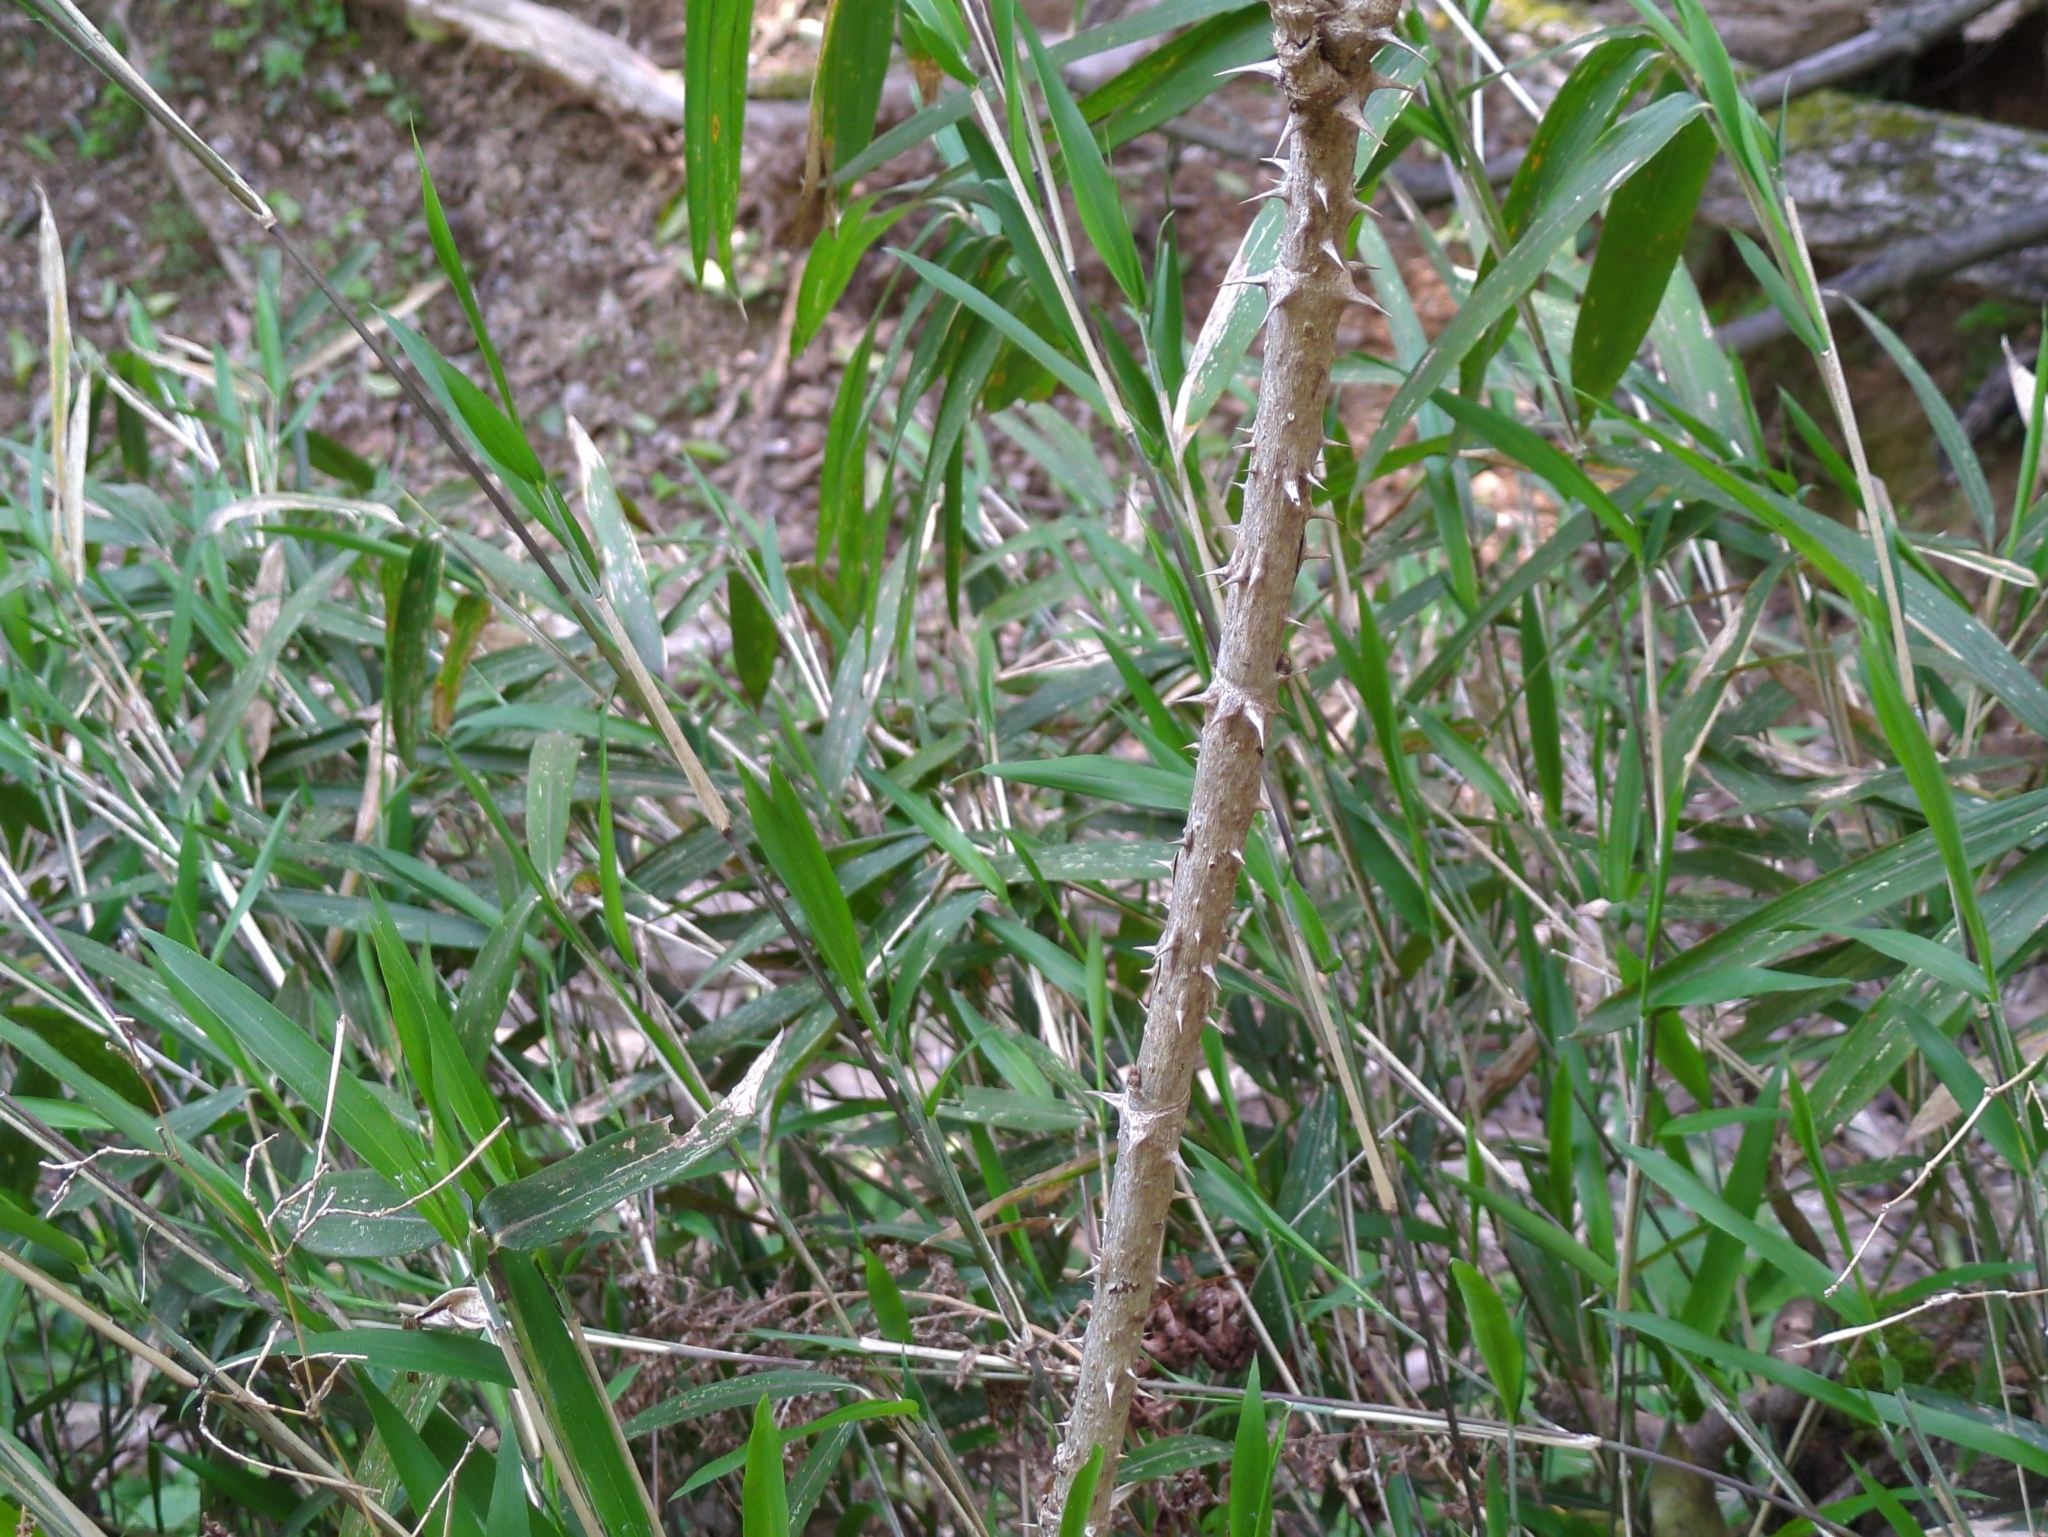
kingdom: Plantae
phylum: Tracheophyta
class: Magnoliopsida
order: Apiales
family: Araliaceae
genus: Aralia
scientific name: Aralia elata
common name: Japanese angelica-tree
